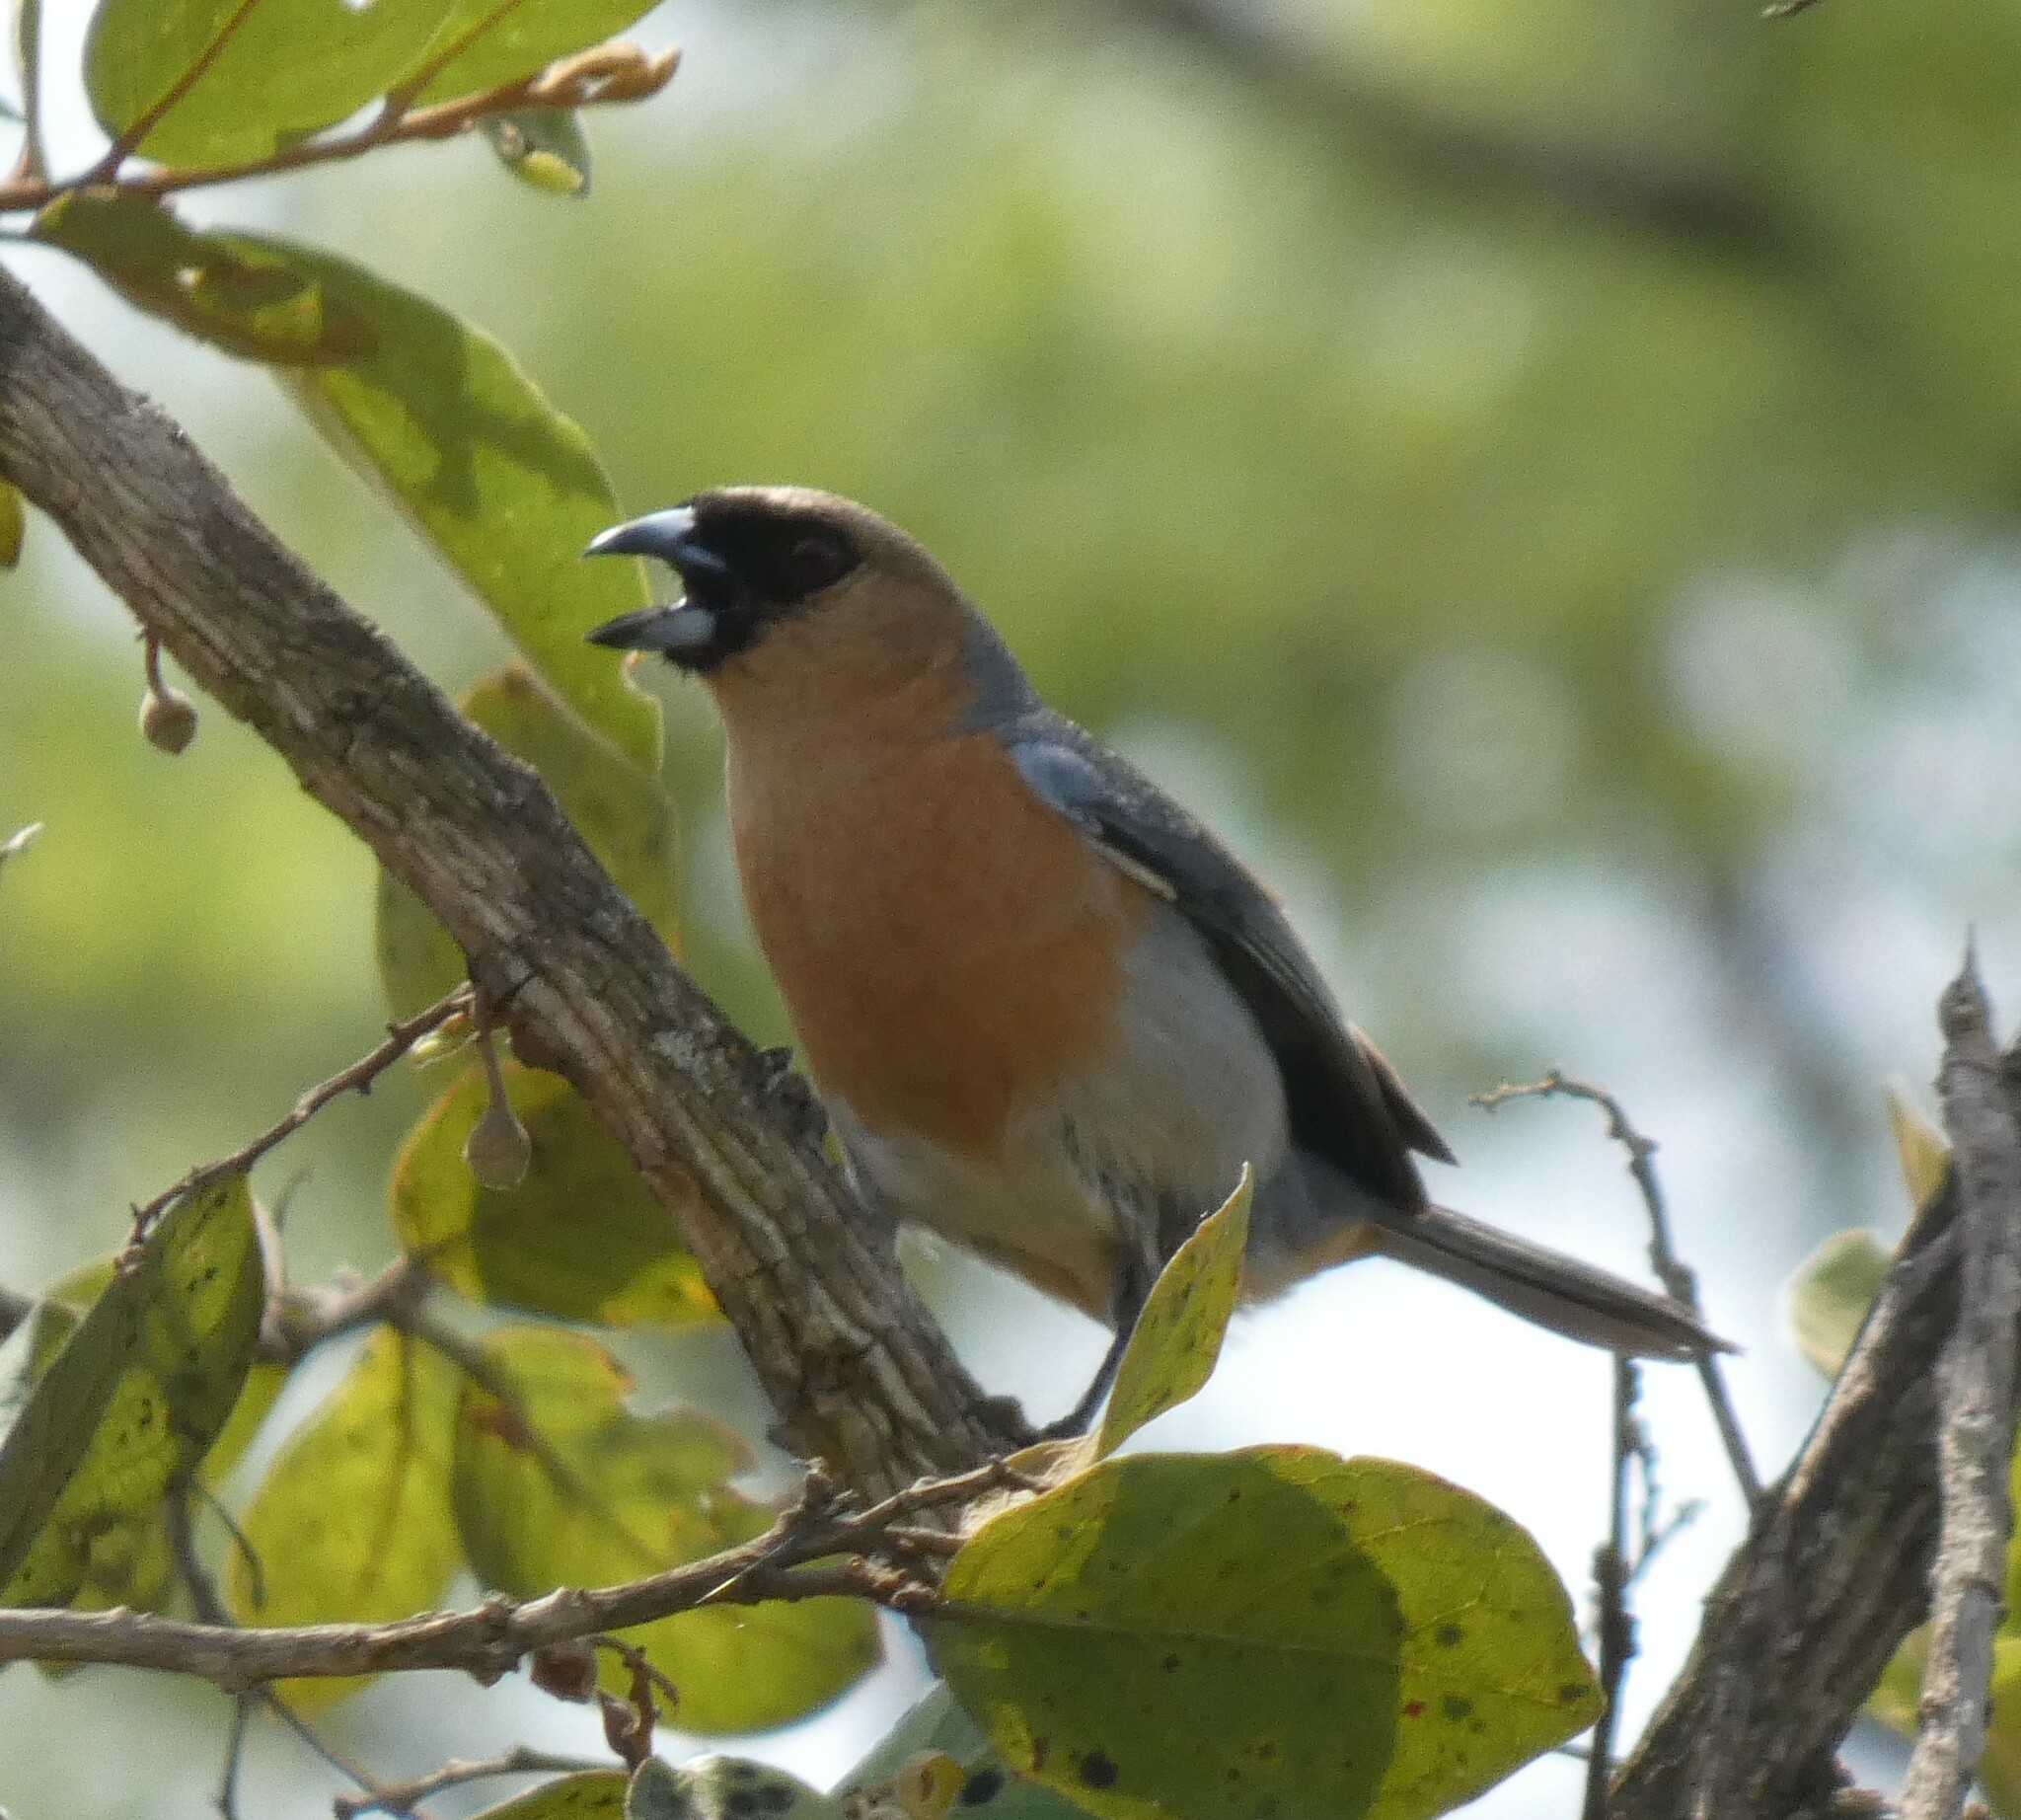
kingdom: Animalia
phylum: Chordata
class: Aves
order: Passeriformes
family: Thraupidae
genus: Schistochlamys
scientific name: Schistochlamys ruficapillus
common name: Cinnamon tanager
